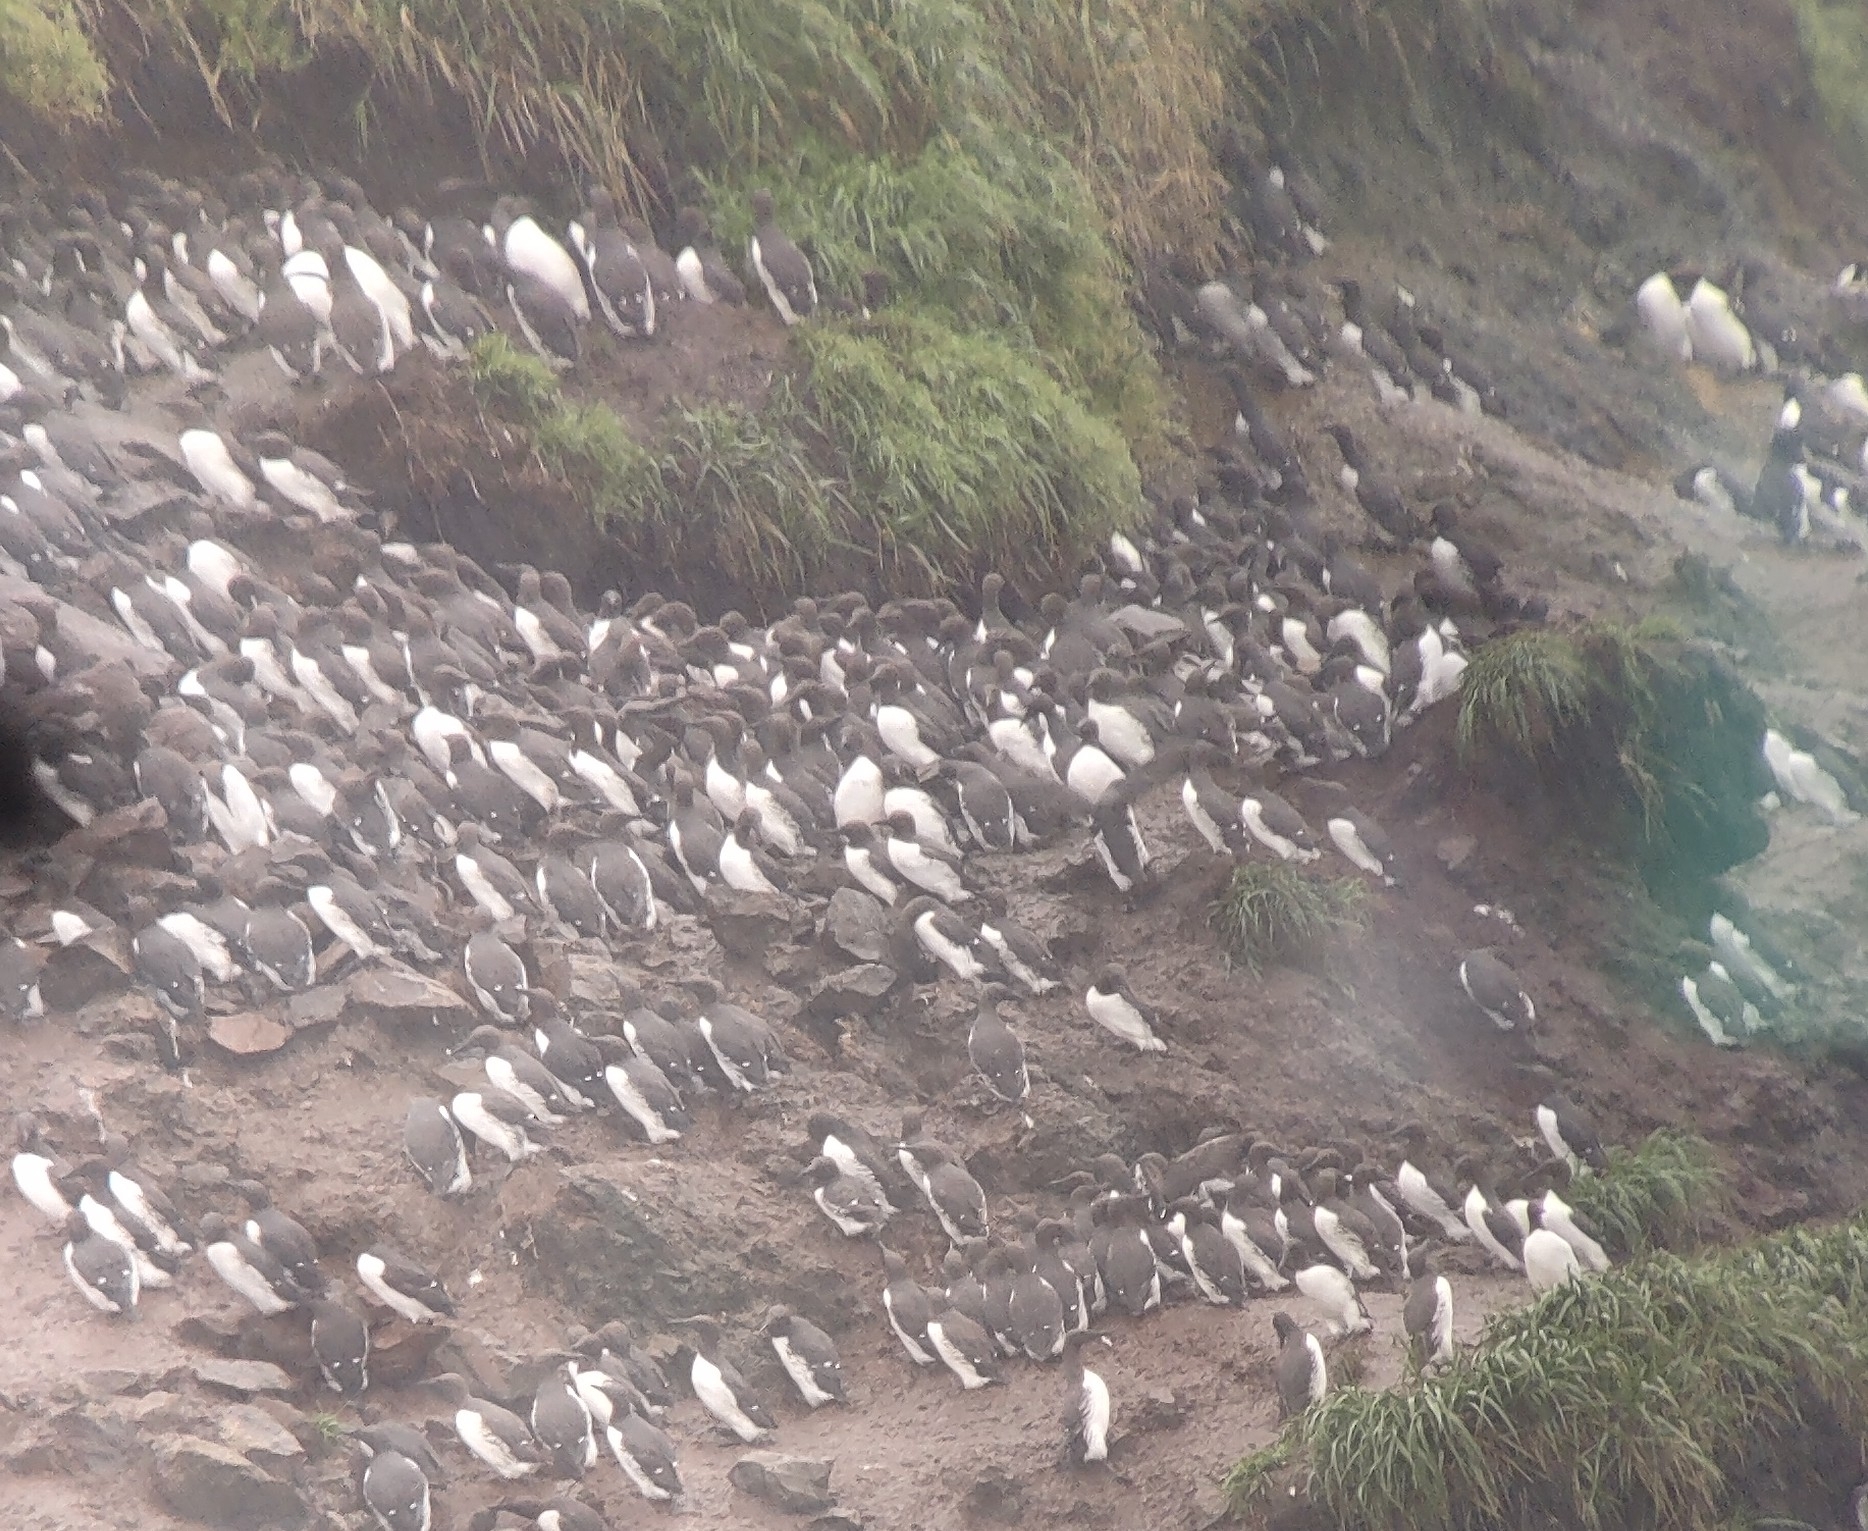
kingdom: Animalia
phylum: Chordata
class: Aves
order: Charadriiformes
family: Alcidae
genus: Uria
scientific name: Uria aalge
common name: Common murre
